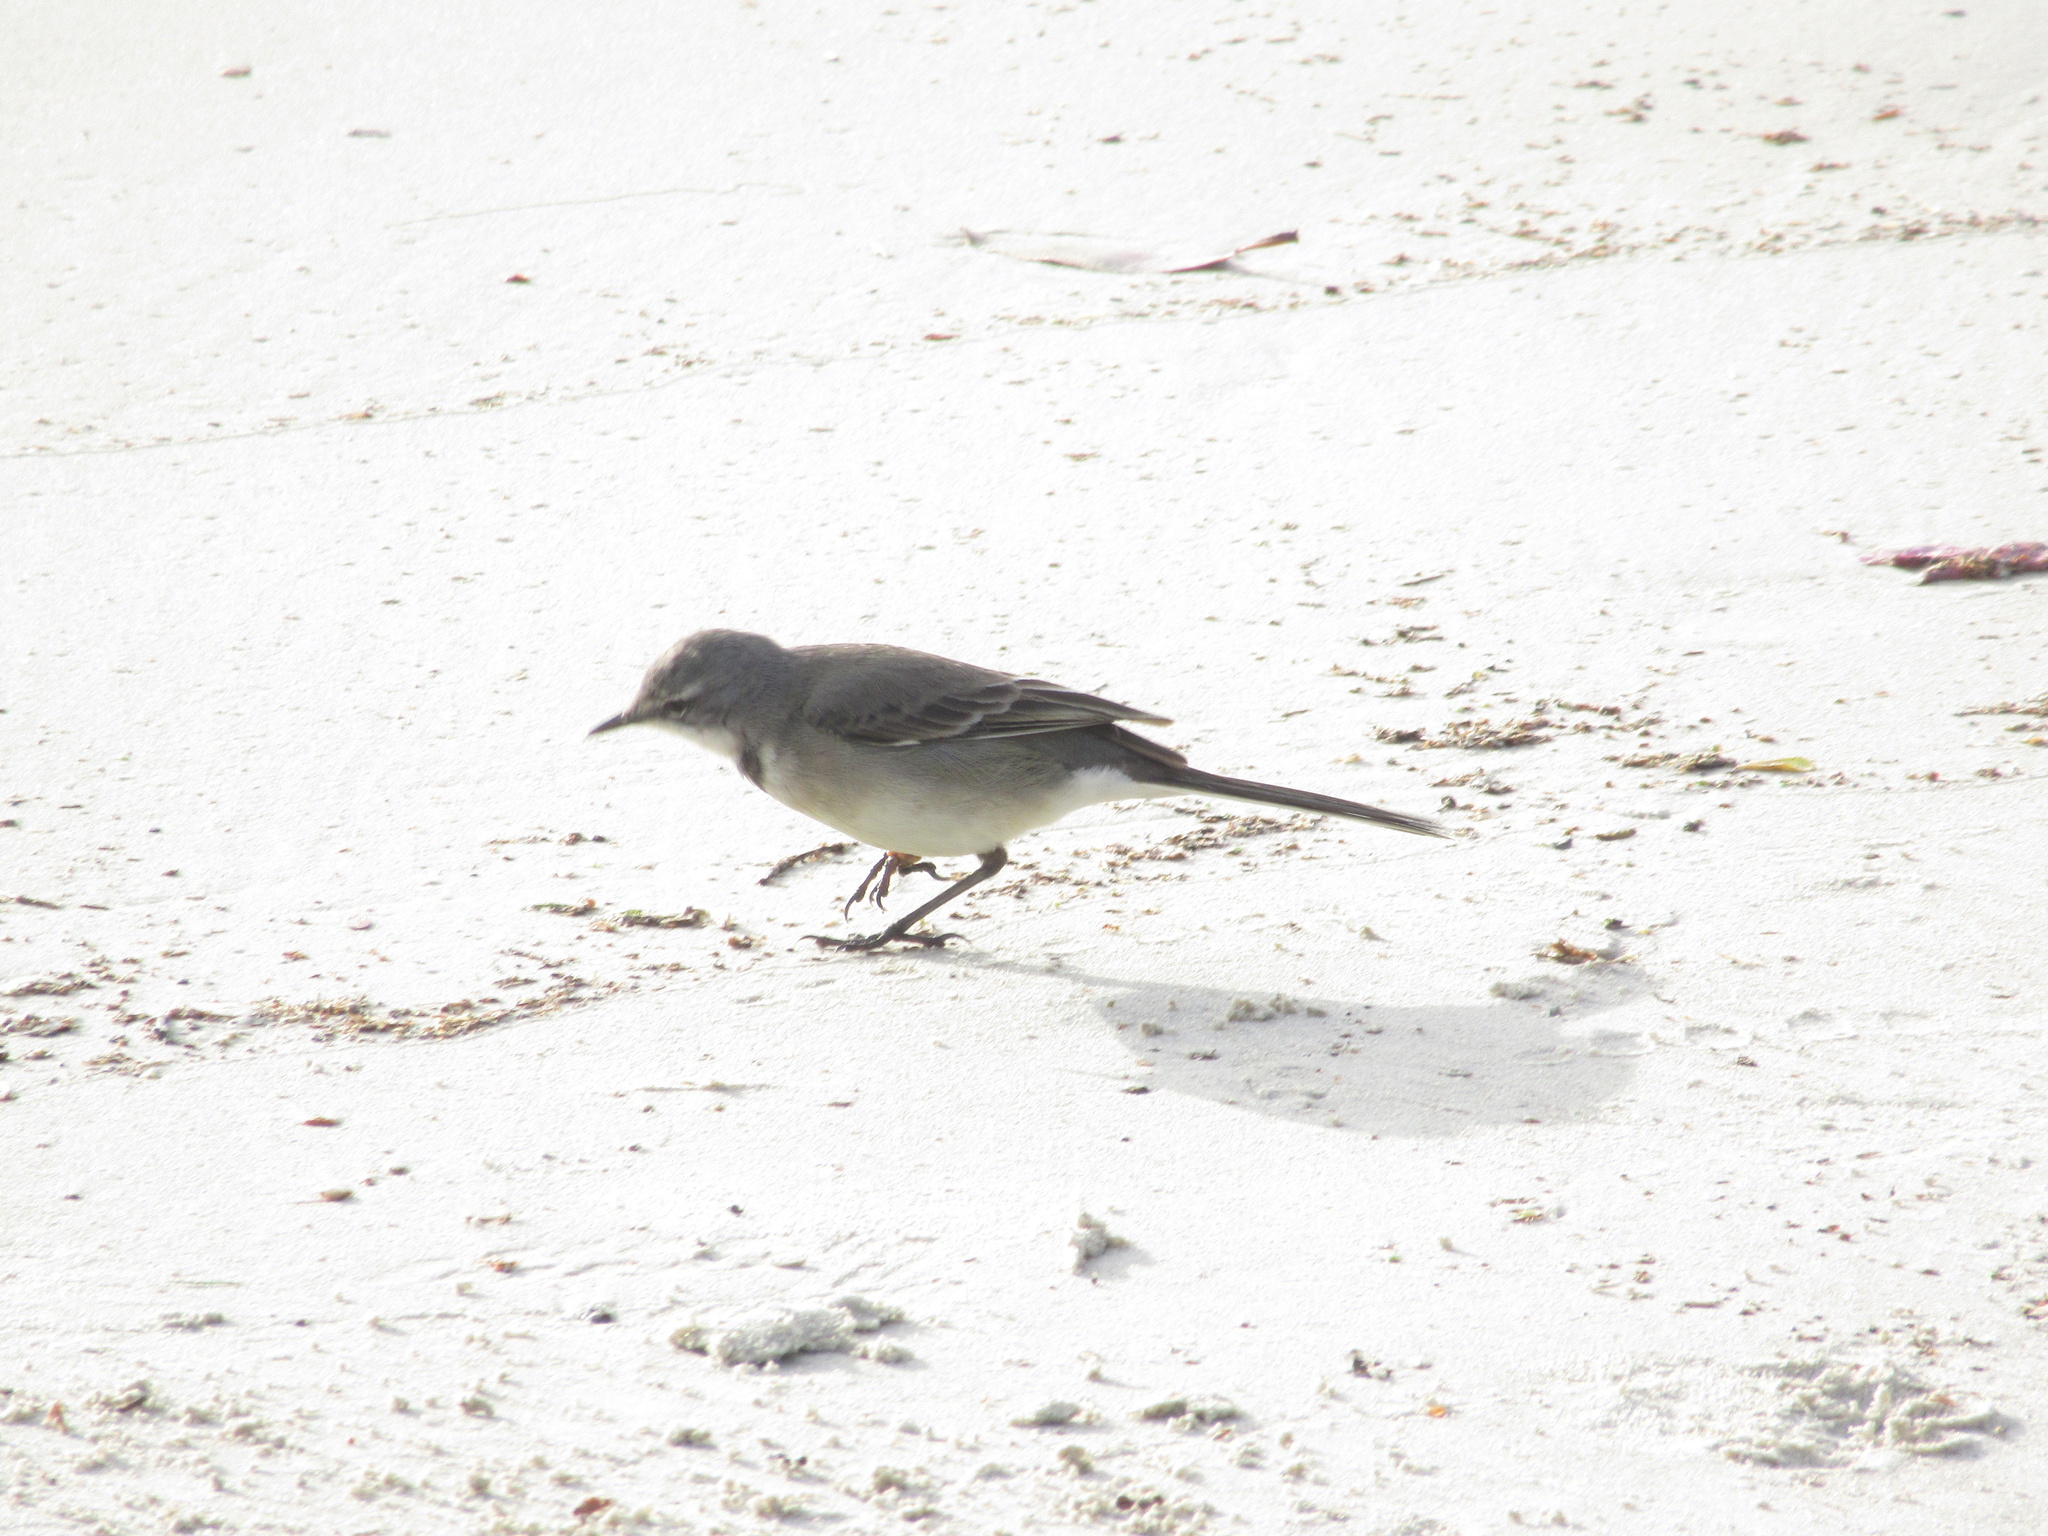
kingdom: Animalia
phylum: Chordata
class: Aves
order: Passeriformes
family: Motacillidae
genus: Motacilla
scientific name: Motacilla capensis
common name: Cape wagtail
